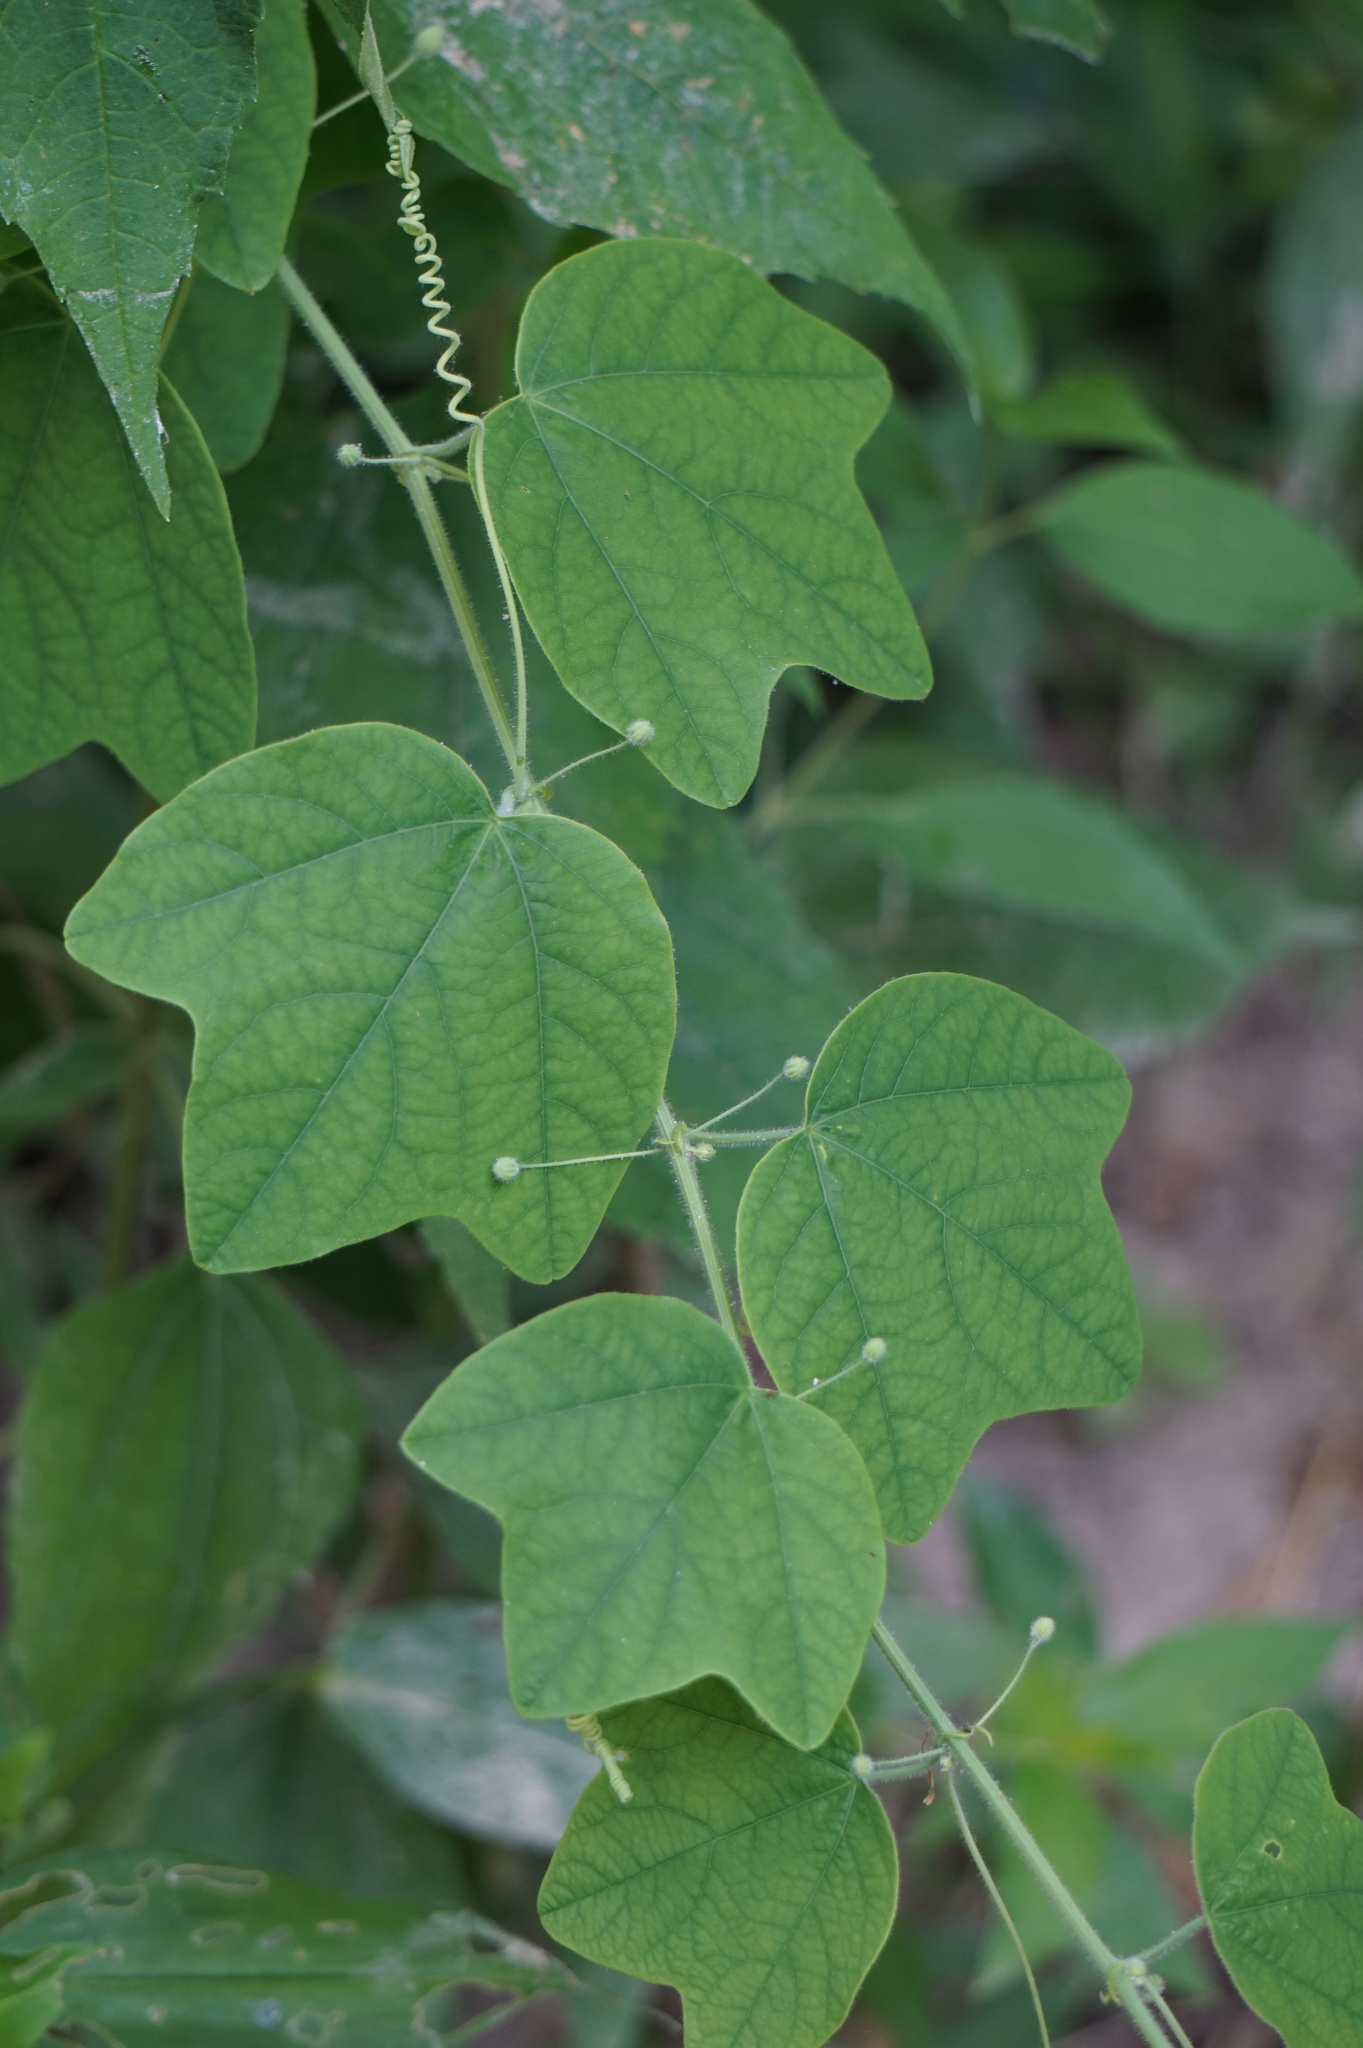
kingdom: Plantae
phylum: Tracheophyta
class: Magnoliopsida
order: Malpighiales
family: Passifloraceae
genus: Passiflora
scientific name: Passiflora lutea
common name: Yellow passionflower
